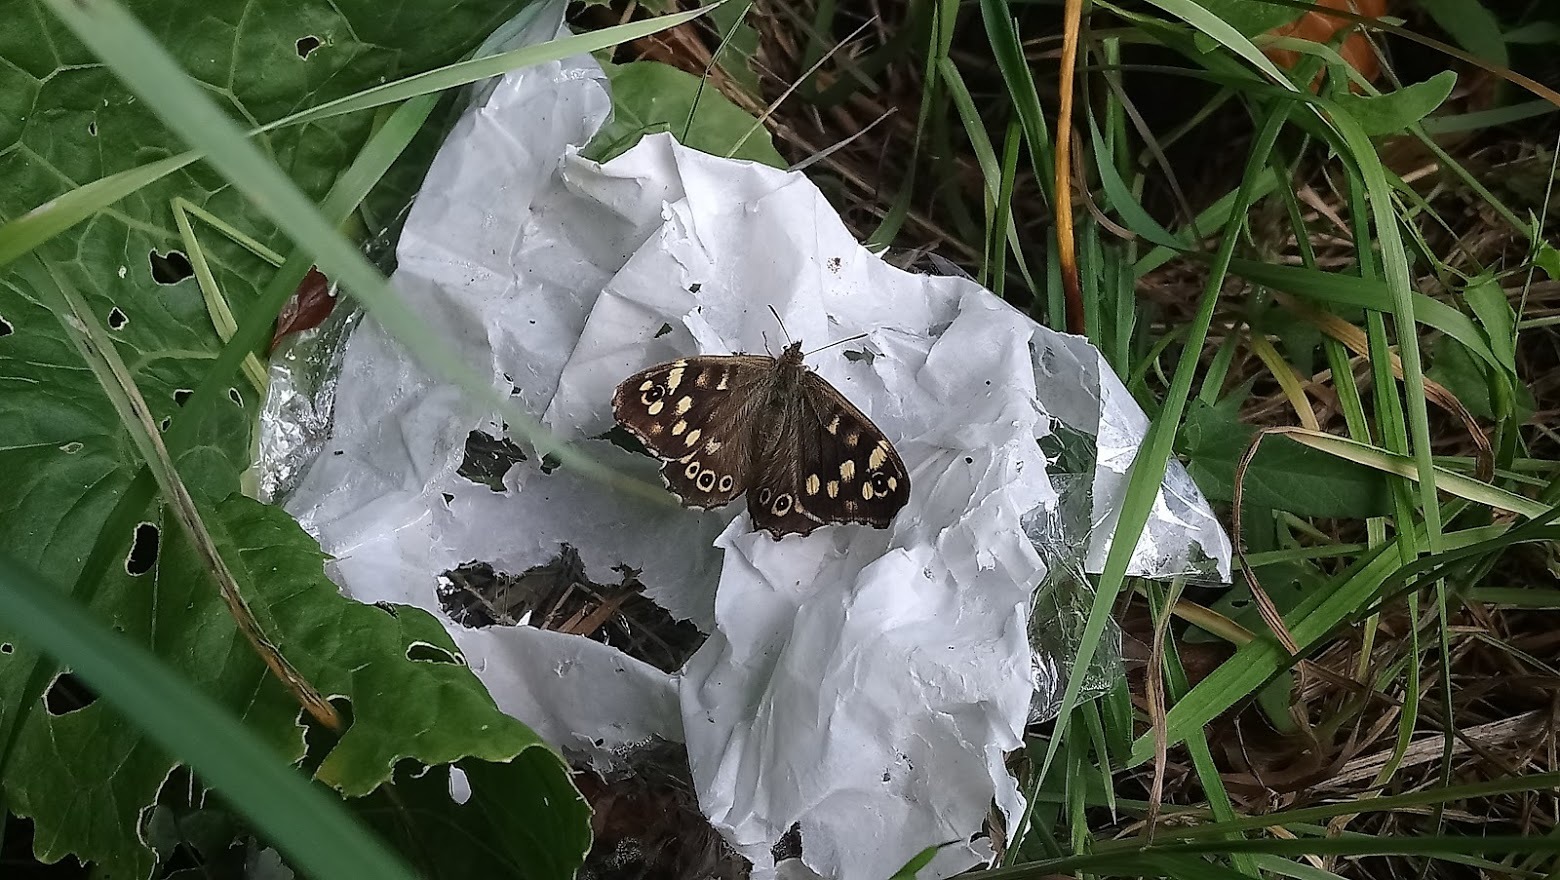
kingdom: Animalia
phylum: Arthropoda
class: Insecta
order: Lepidoptera
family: Nymphalidae
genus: Pararge
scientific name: Pararge aegeria
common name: Speckled wood
